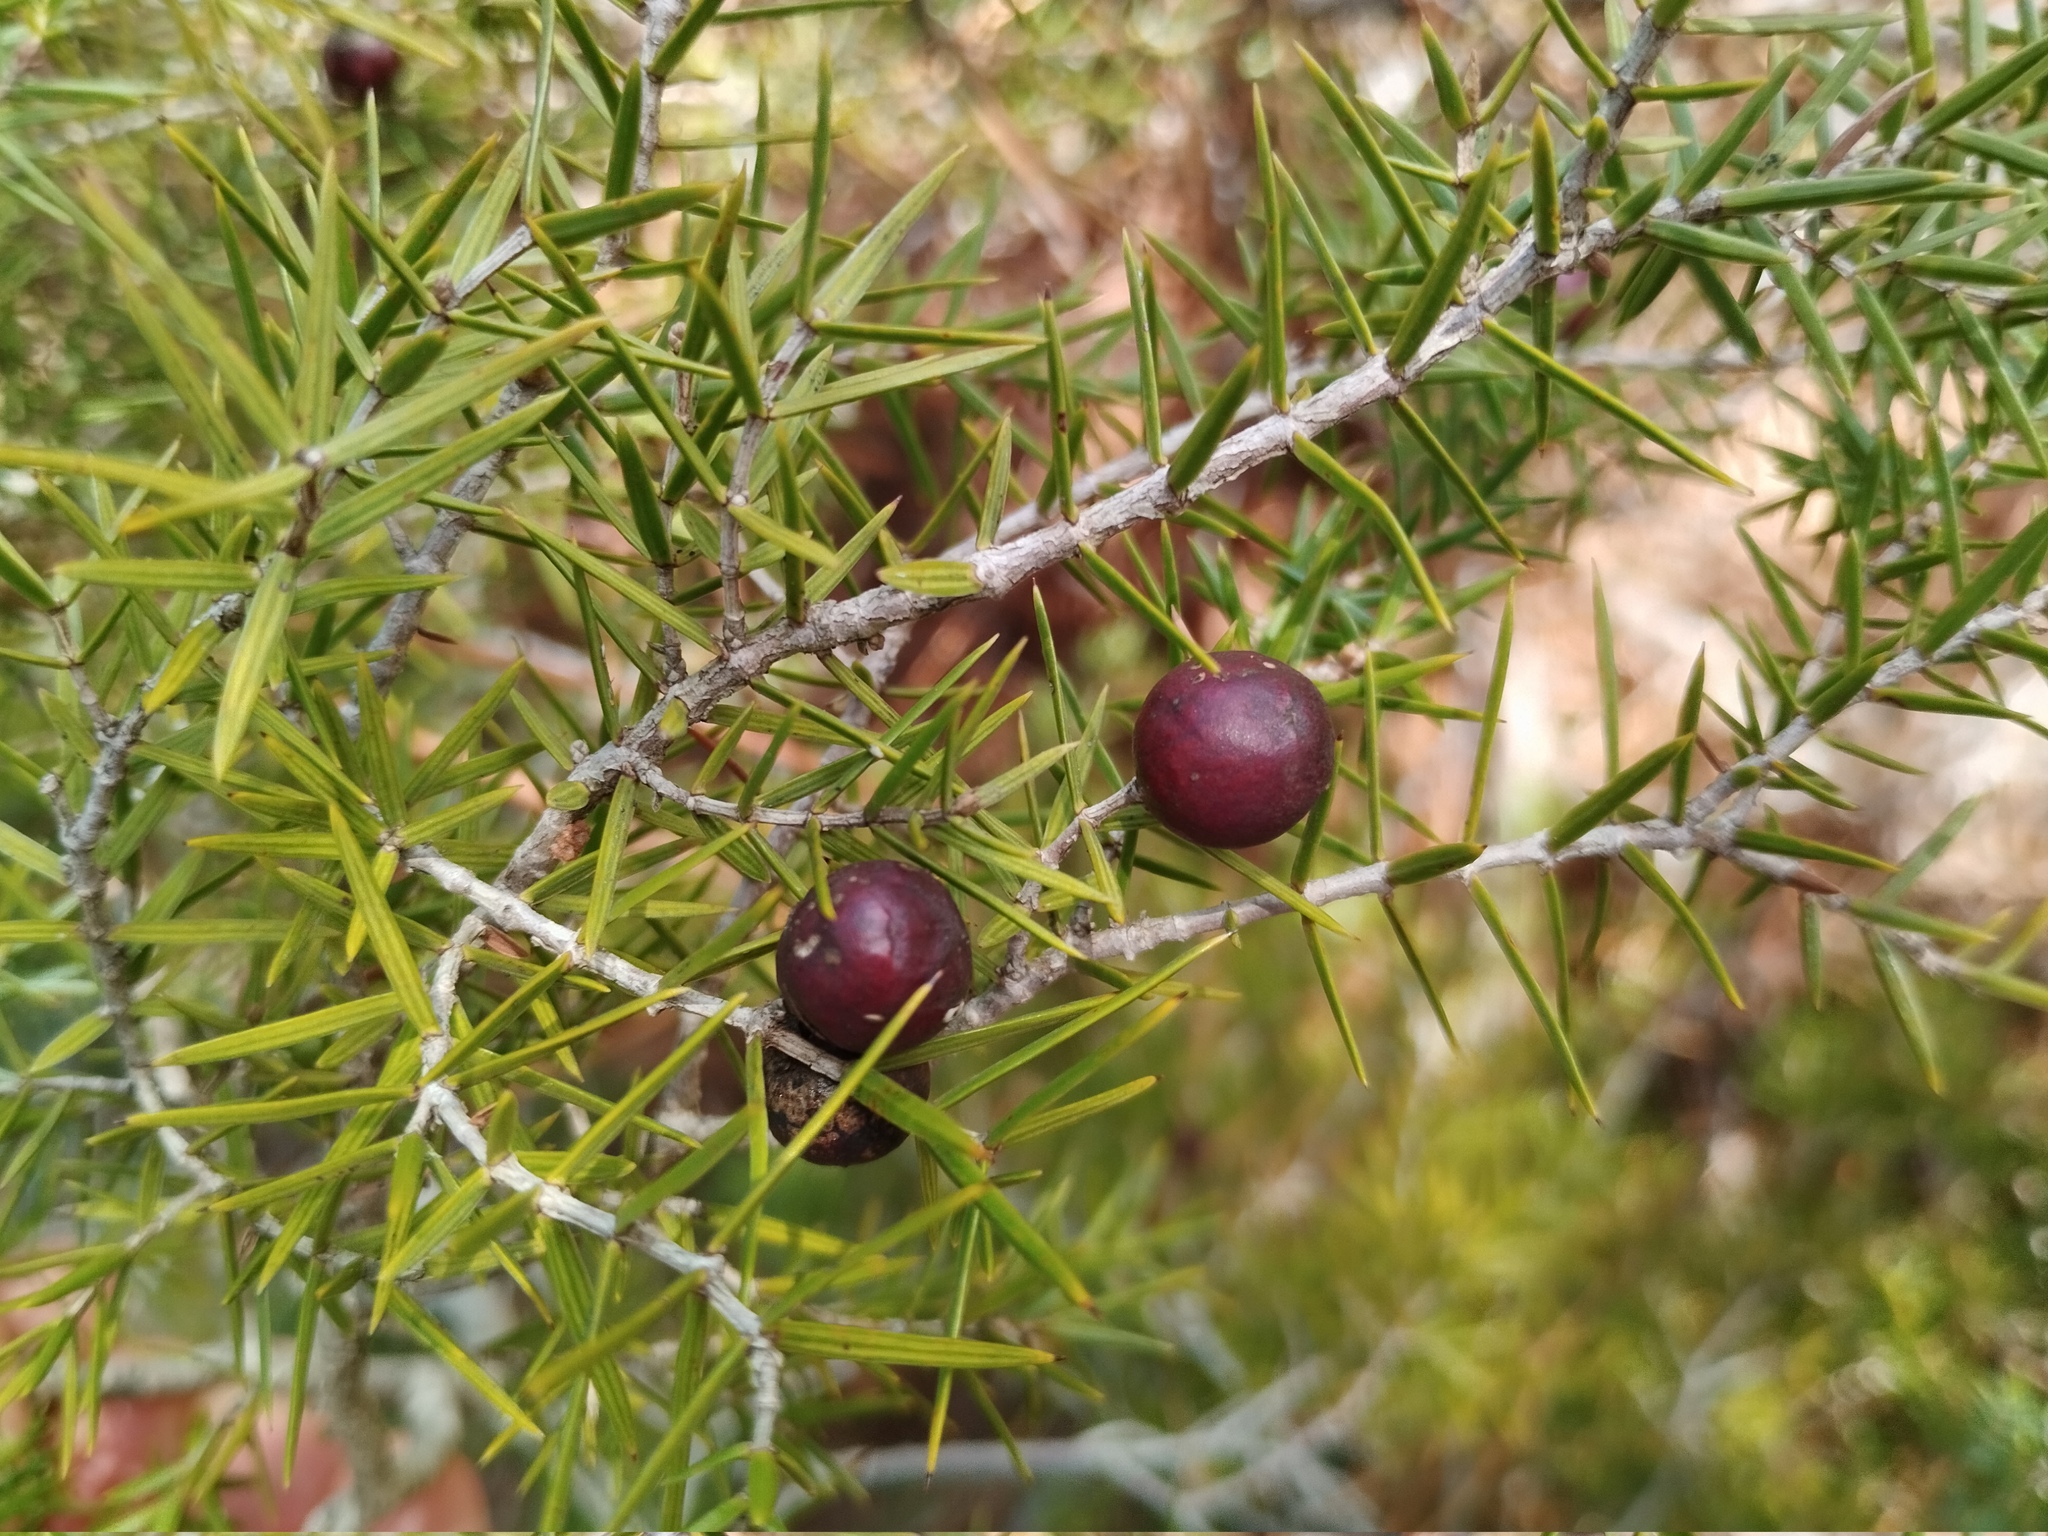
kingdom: Plantae
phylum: Tracheophyta
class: Pinopsida
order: Pinales
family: Cupressaceae
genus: Juniperus
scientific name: Juniperus oxycedrus
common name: Prickly juniper
